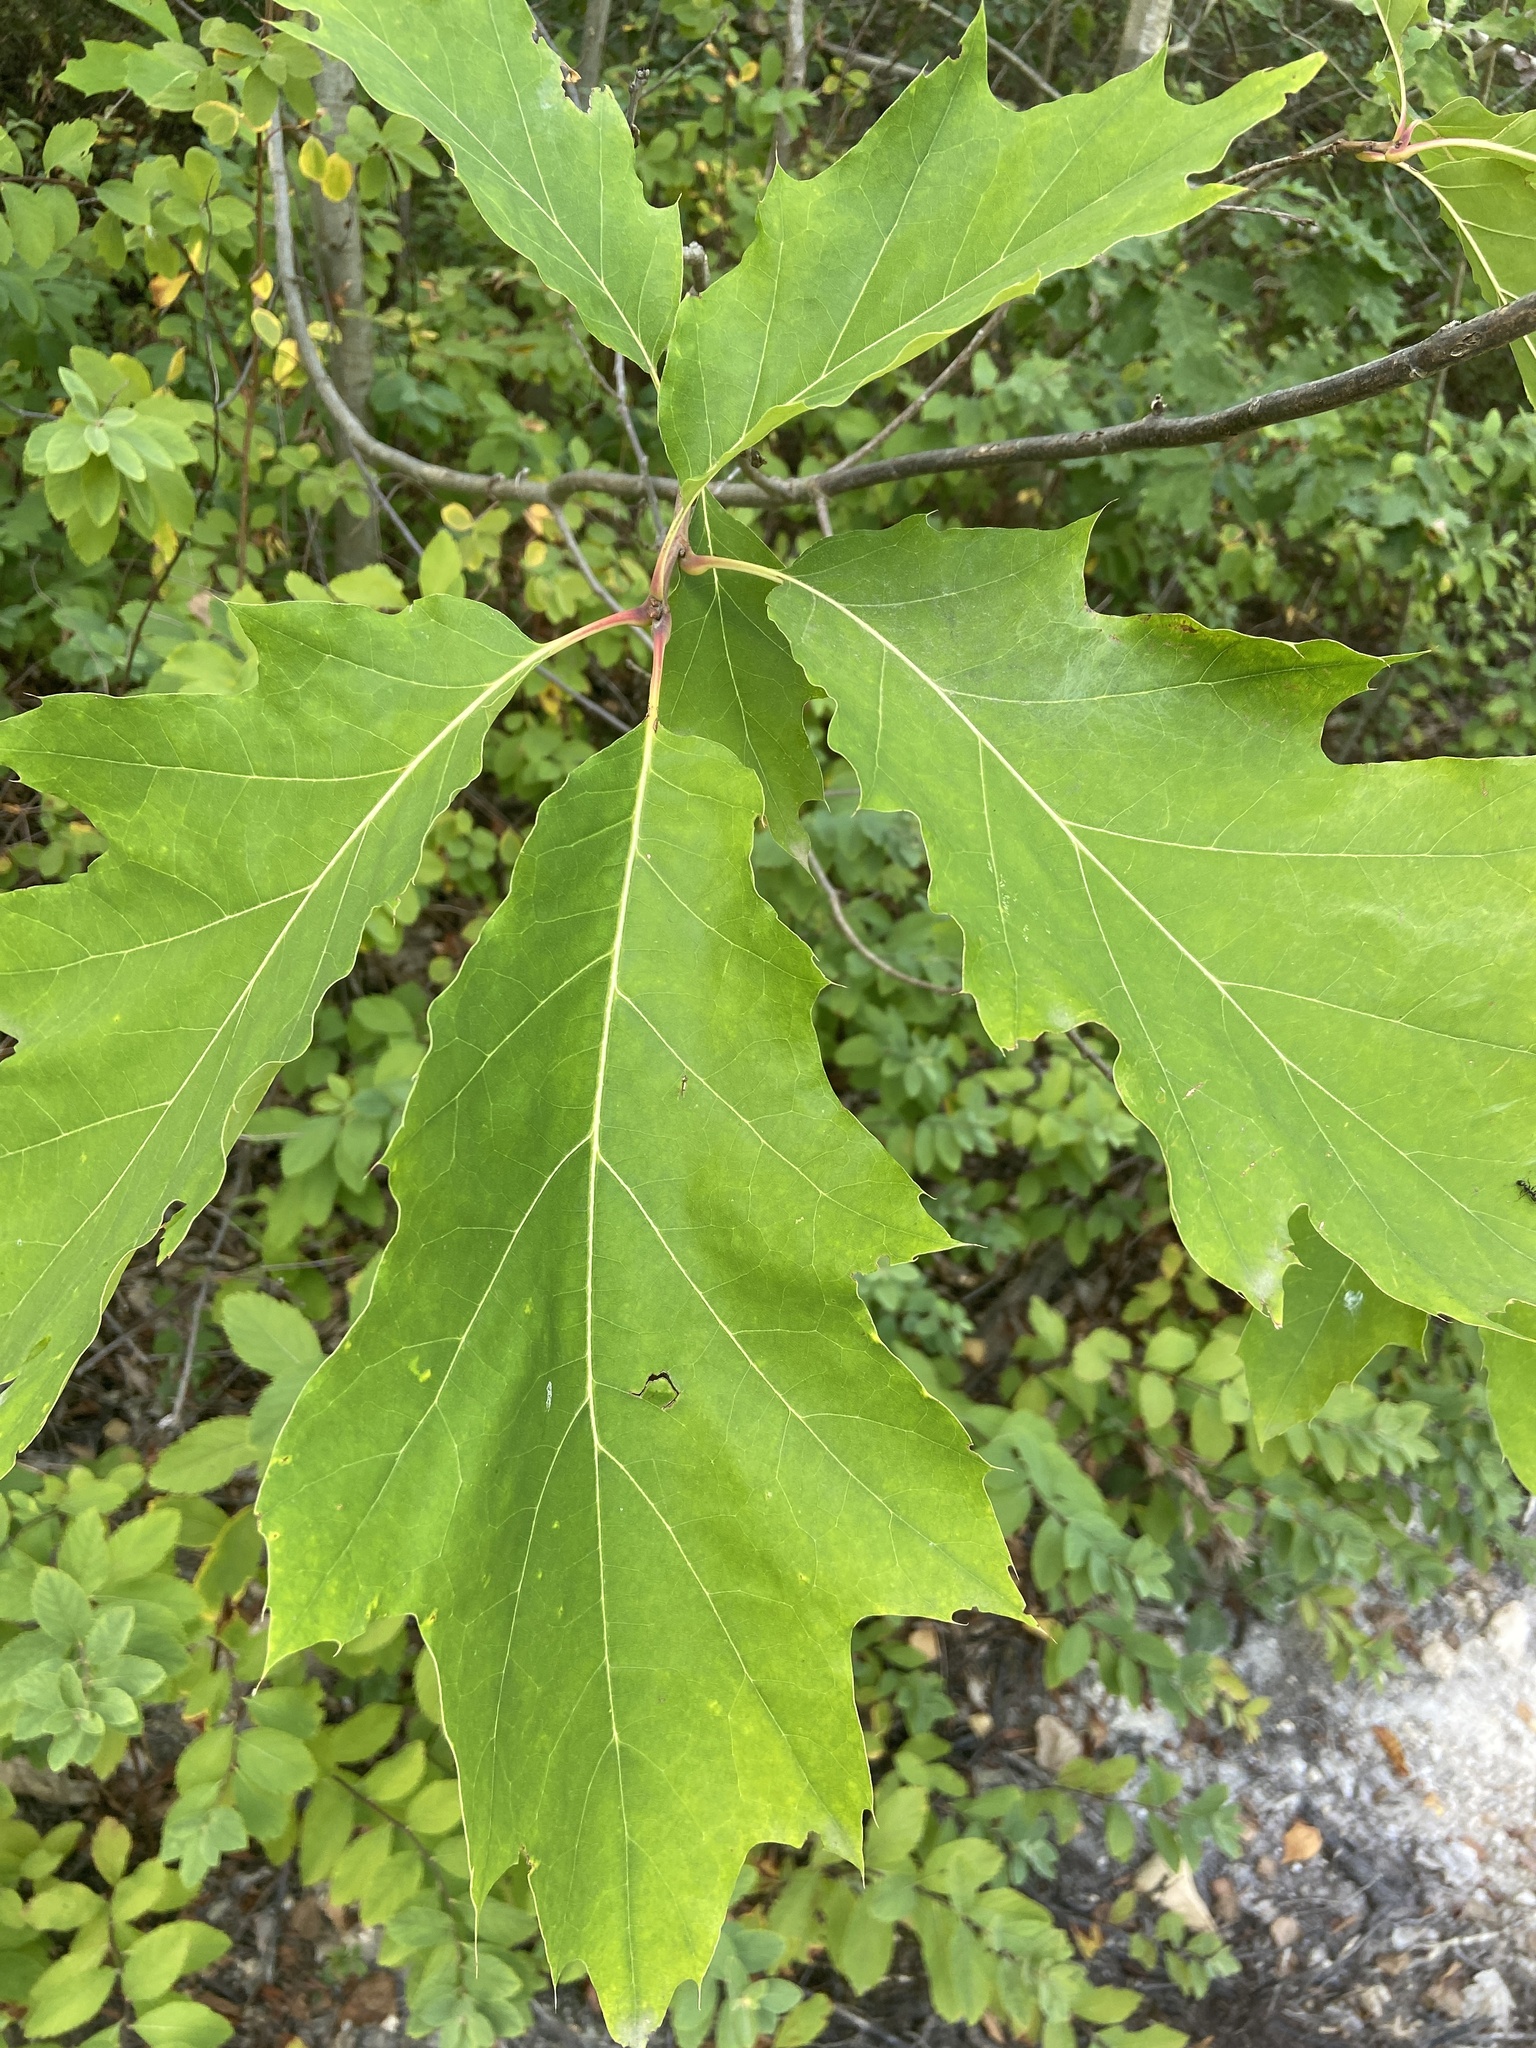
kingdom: Plantae
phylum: Tracheophyta
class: Magnoliopsida
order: Fagales
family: Fagaceae
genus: Quercus
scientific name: Quercus rubra
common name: Red oak
